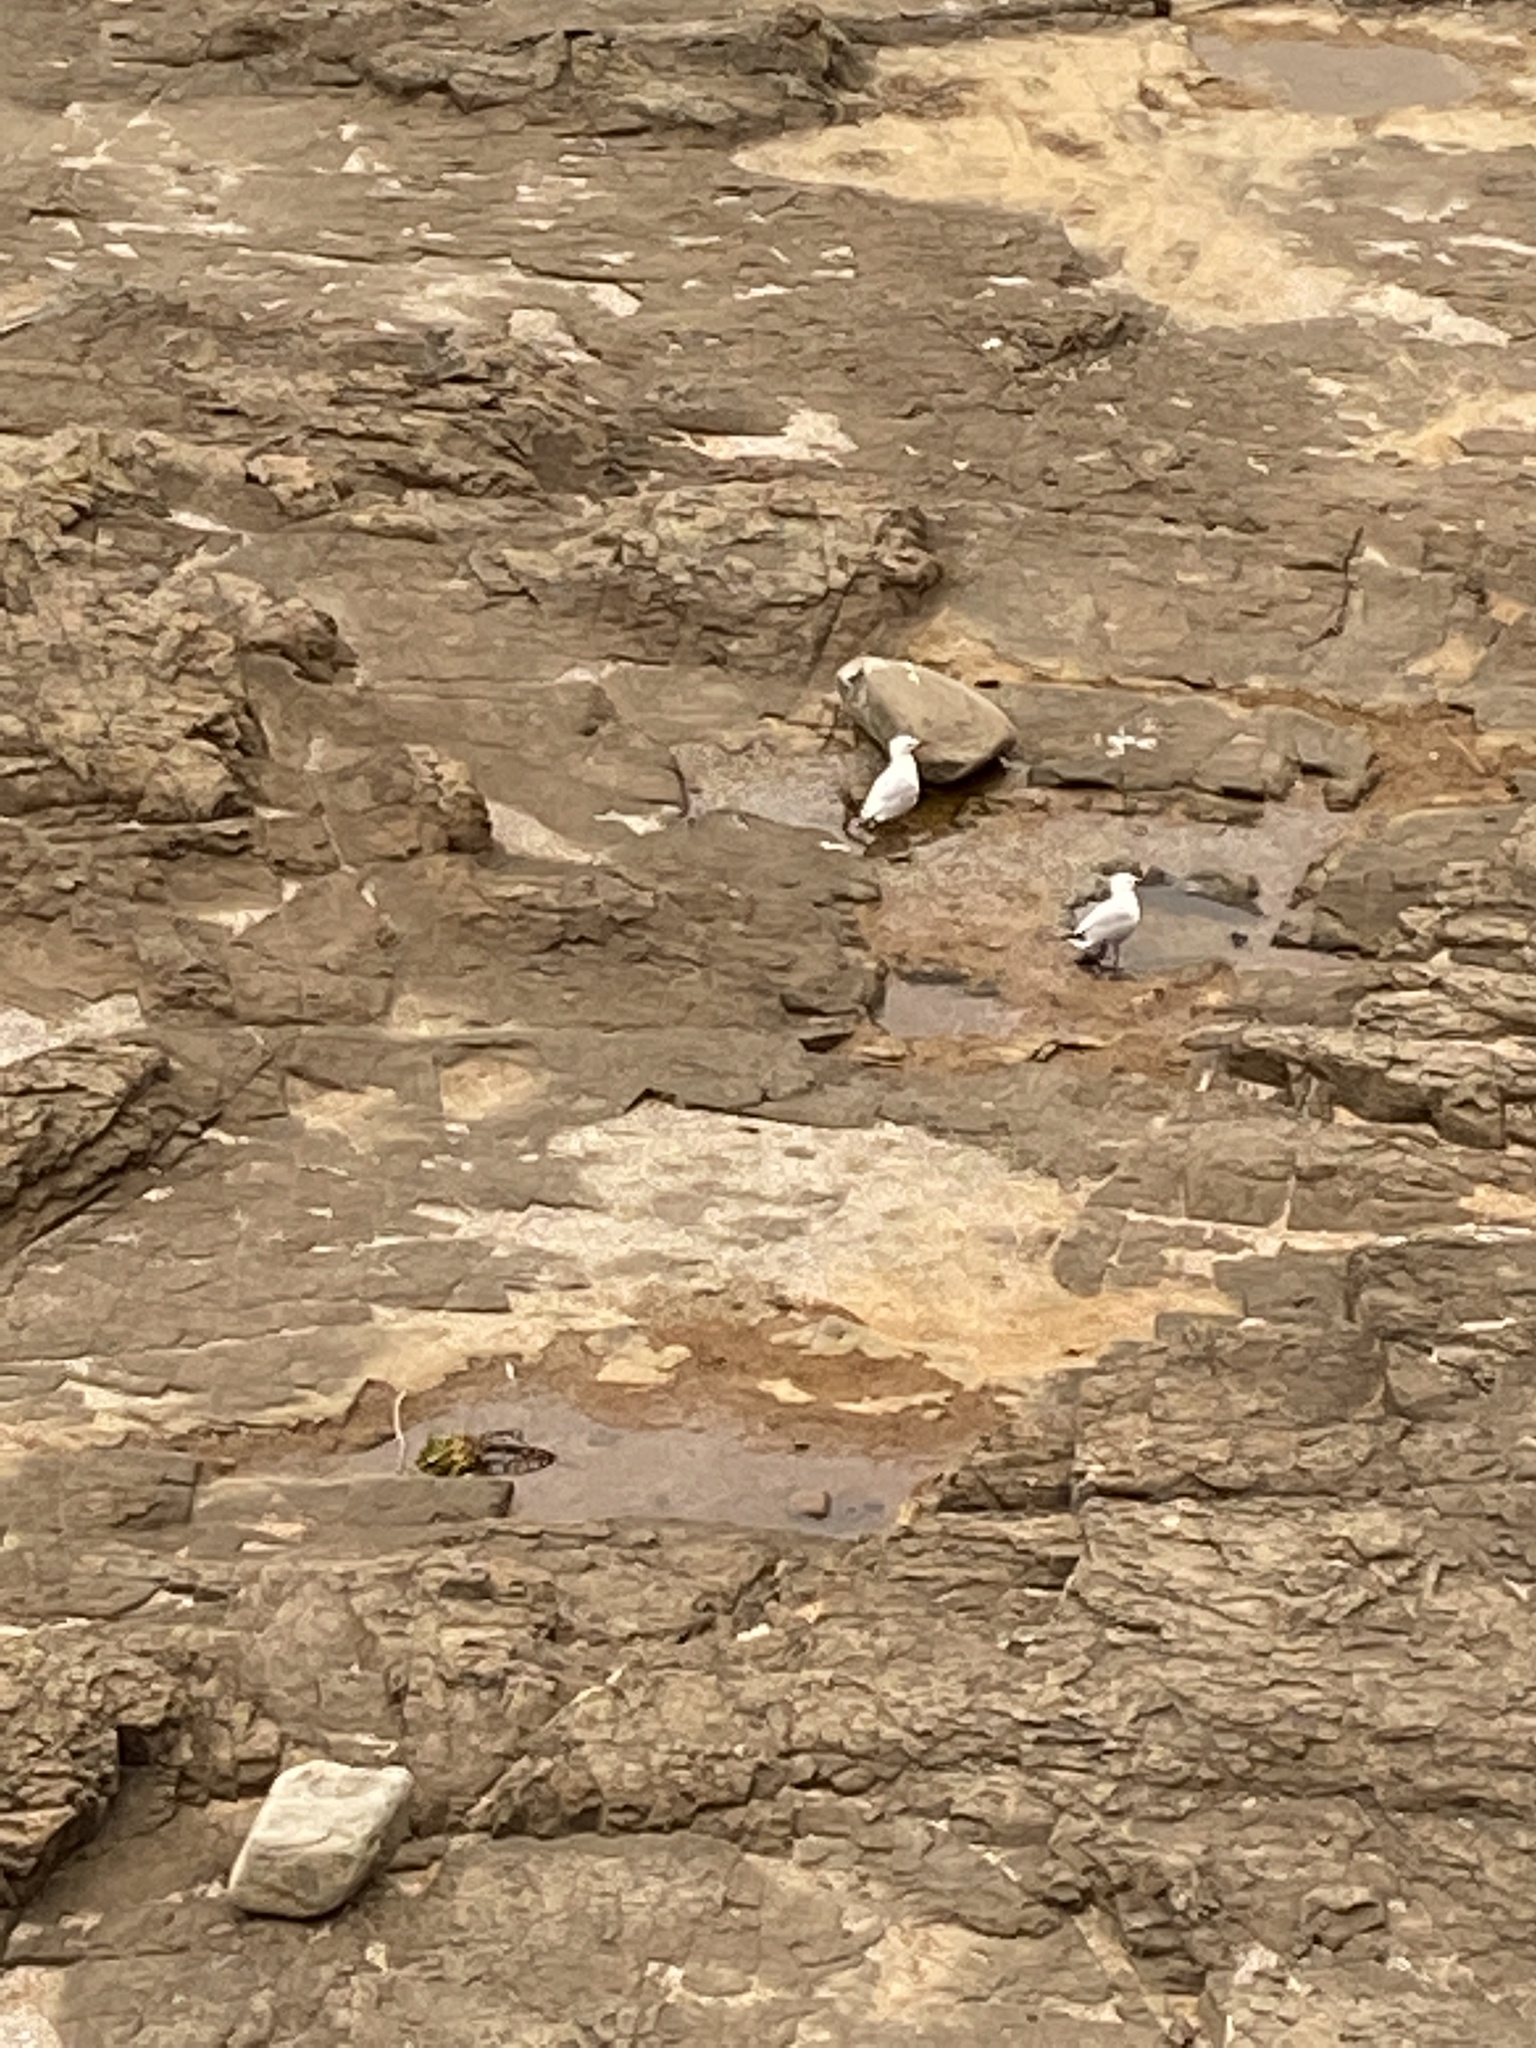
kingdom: Animalia
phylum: Chordata
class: Aves
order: Charadriiformes
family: Laridae
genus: Chroicocephalus
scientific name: Chroicocephalus novaehollandiae
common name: Silver gull
